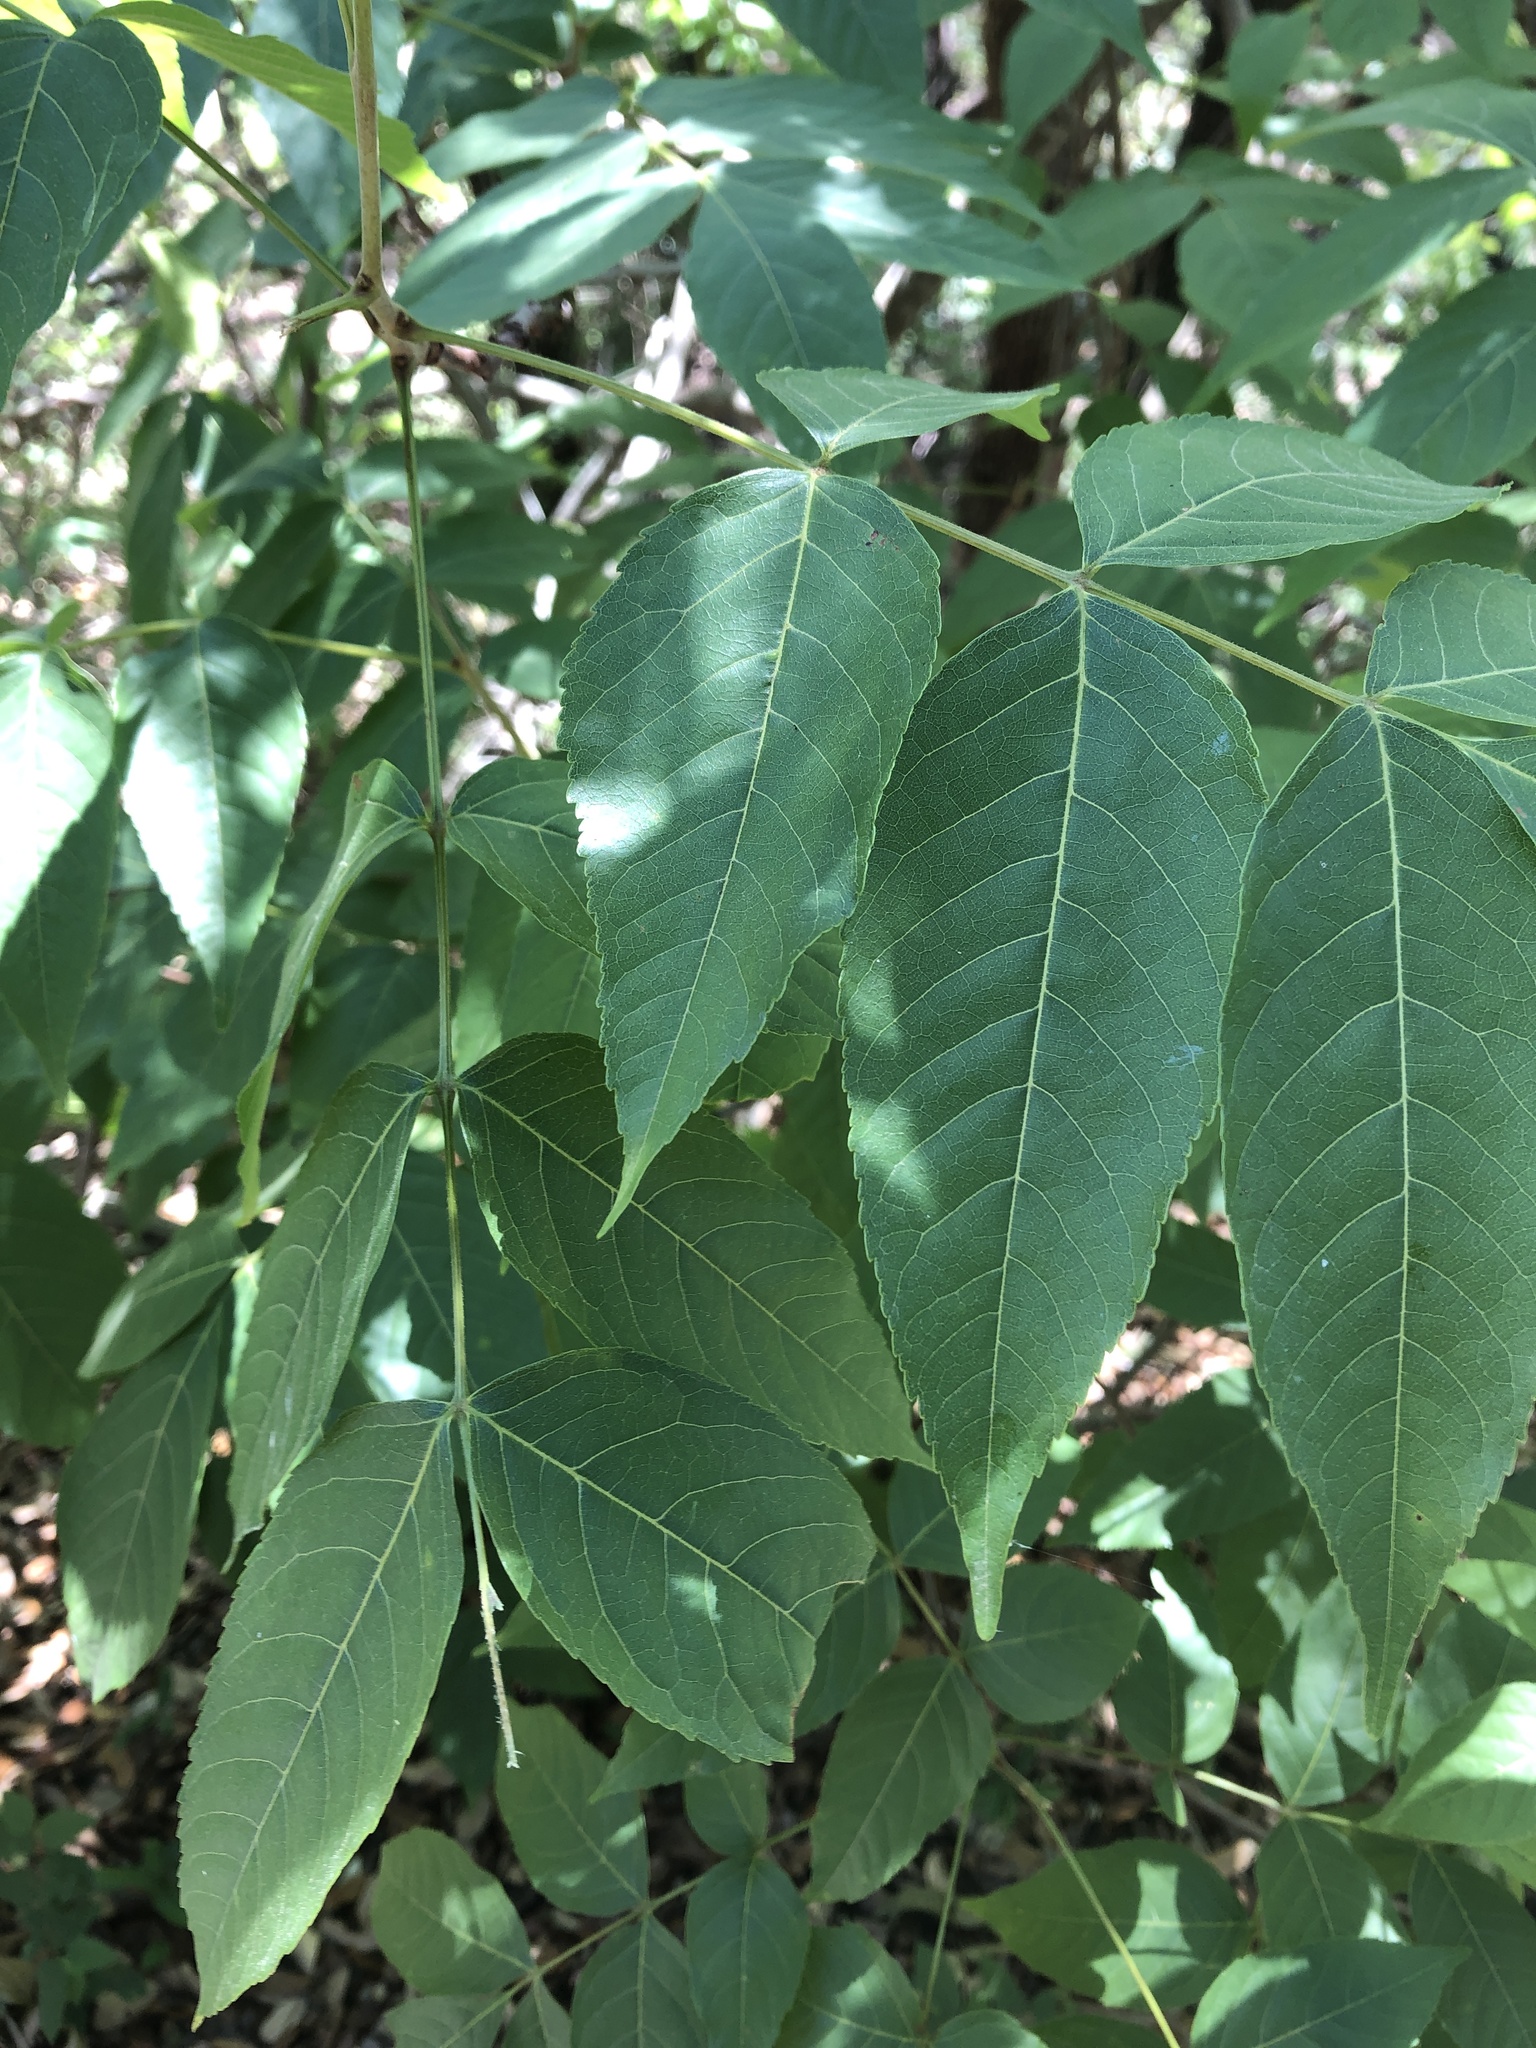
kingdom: Plantae
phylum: Tracheophyta
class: Magnoliopsida
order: Sapindales
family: Sapindaceae
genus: Ungnadia
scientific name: Ungnadia speciosa
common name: Texas-buckeye
